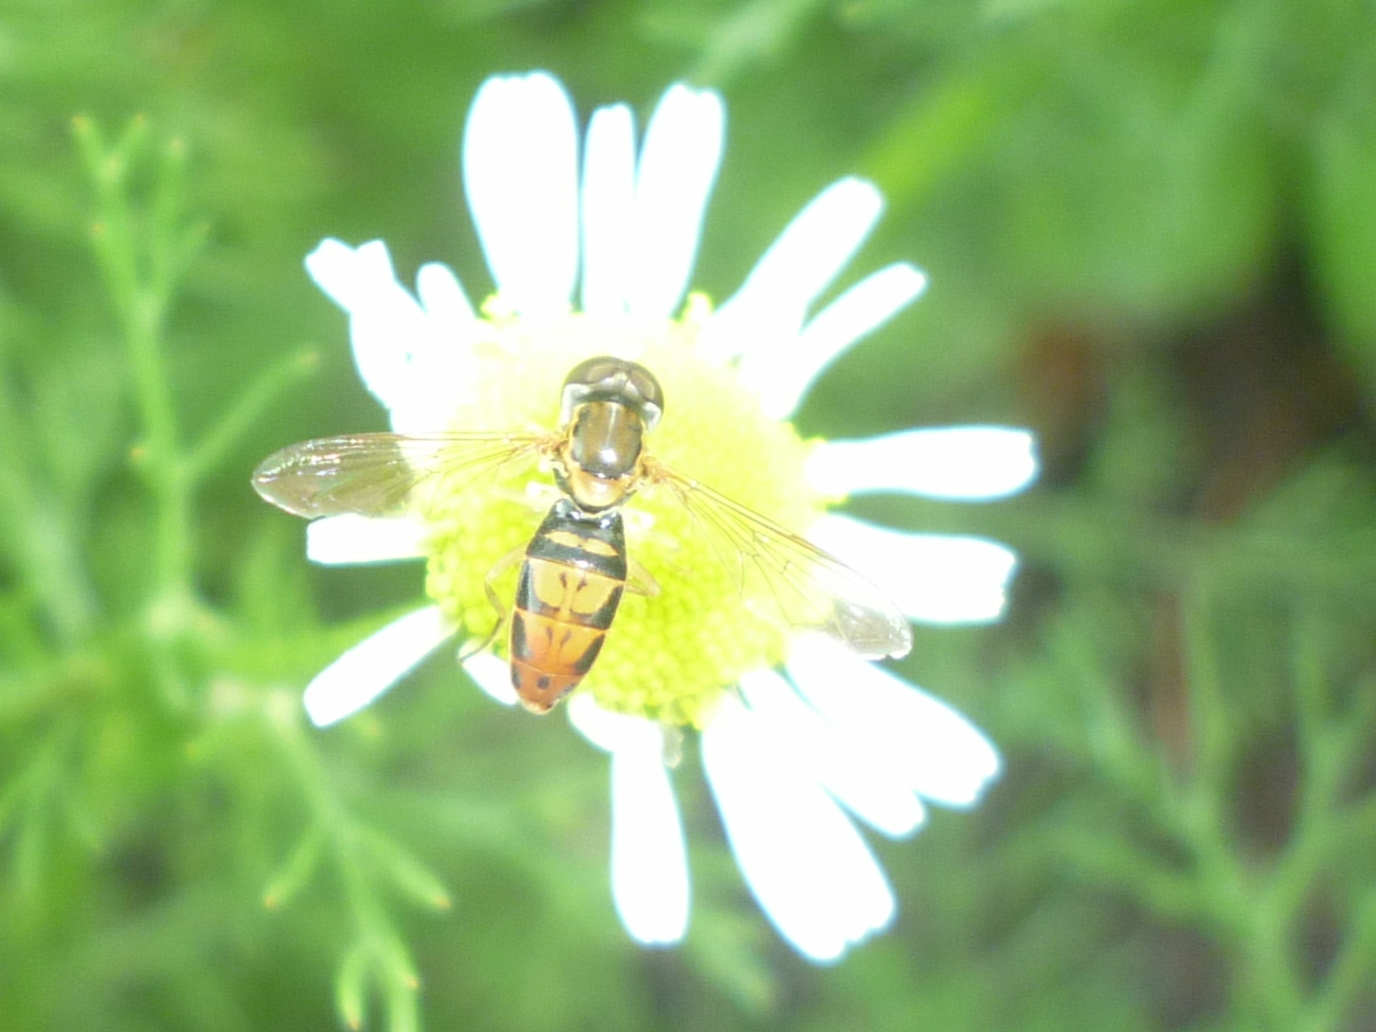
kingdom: Animalia
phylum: Arthropoda
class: Insecta
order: Diptera
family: Syrphidae
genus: Toxomerus
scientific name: Toxomerus marginatus
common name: Syrphid fly
